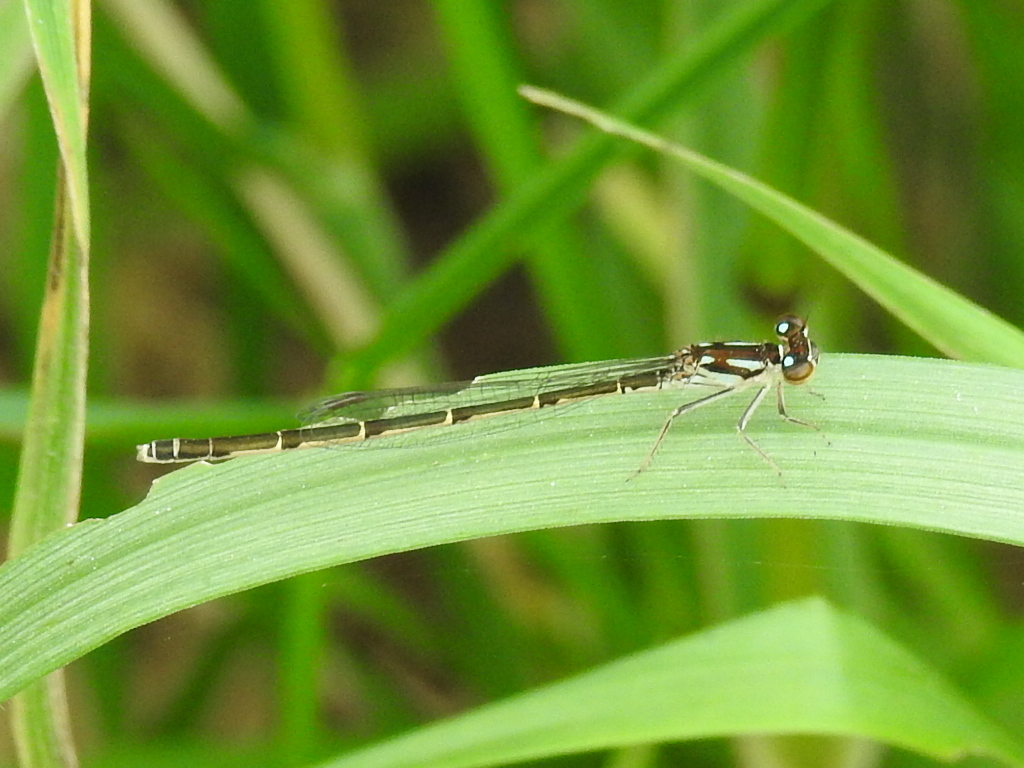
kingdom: Animalia
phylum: Arthropoda
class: Insecta
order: Odonata
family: Coenagrionidae
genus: Ischnura
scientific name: Ischnura posita
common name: Fragile forktail
